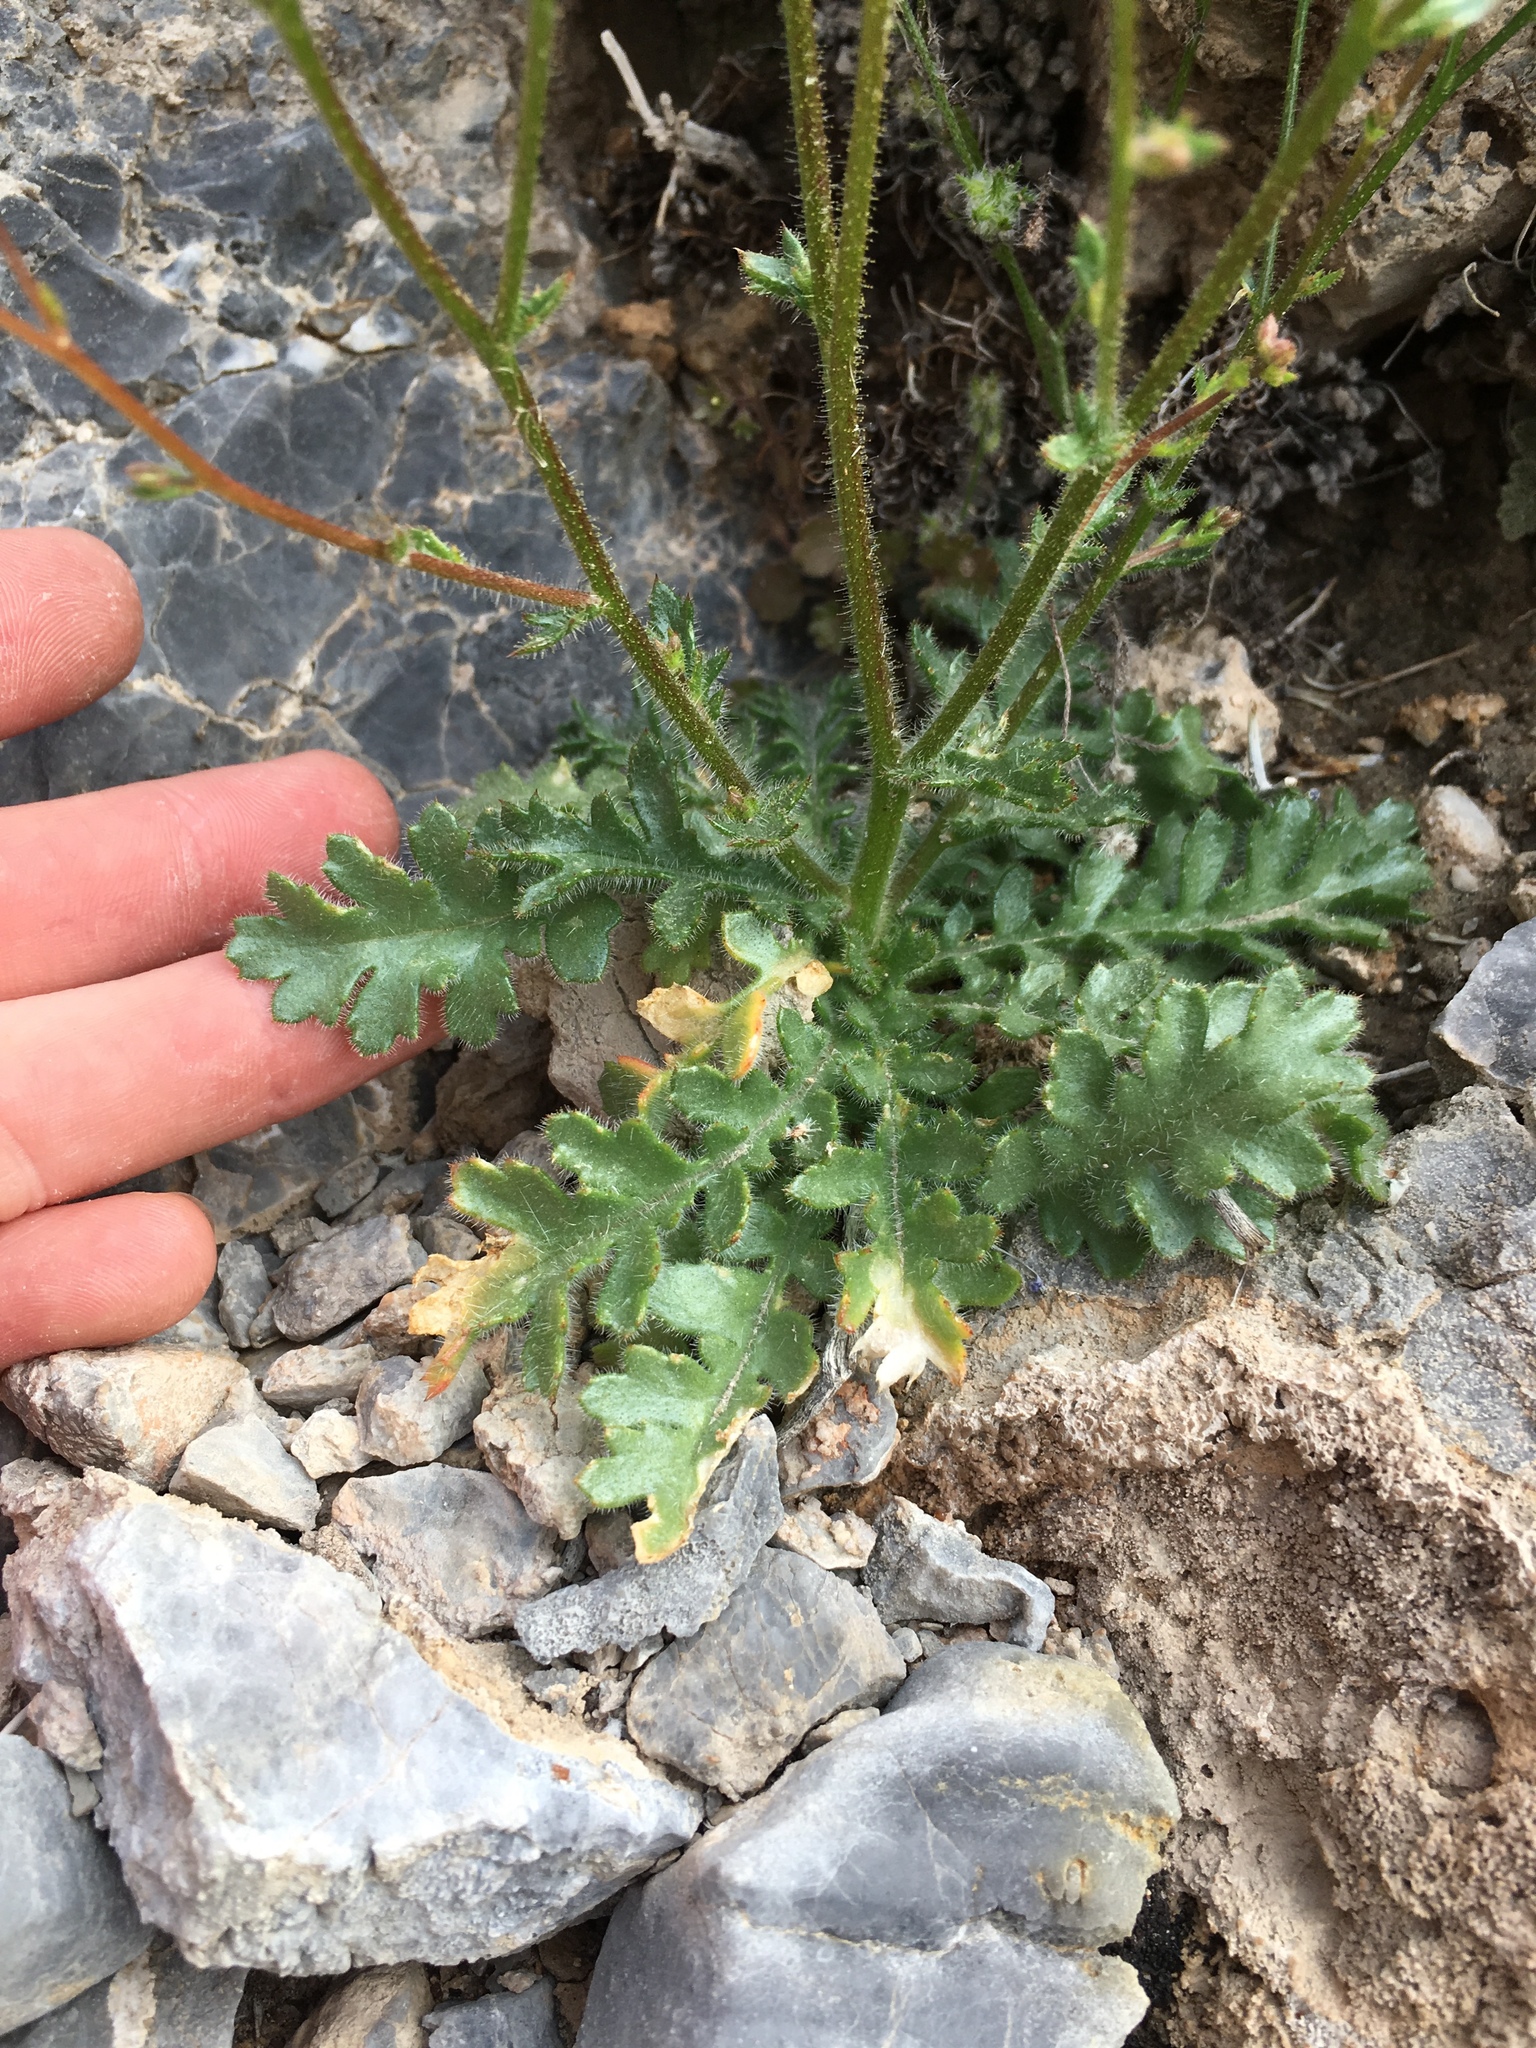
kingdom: Plantae
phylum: Tracheophyta
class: Magnoliopsida
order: Ericales
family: Polemoniaceae
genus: Gilia
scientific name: Gilia scopulorum
